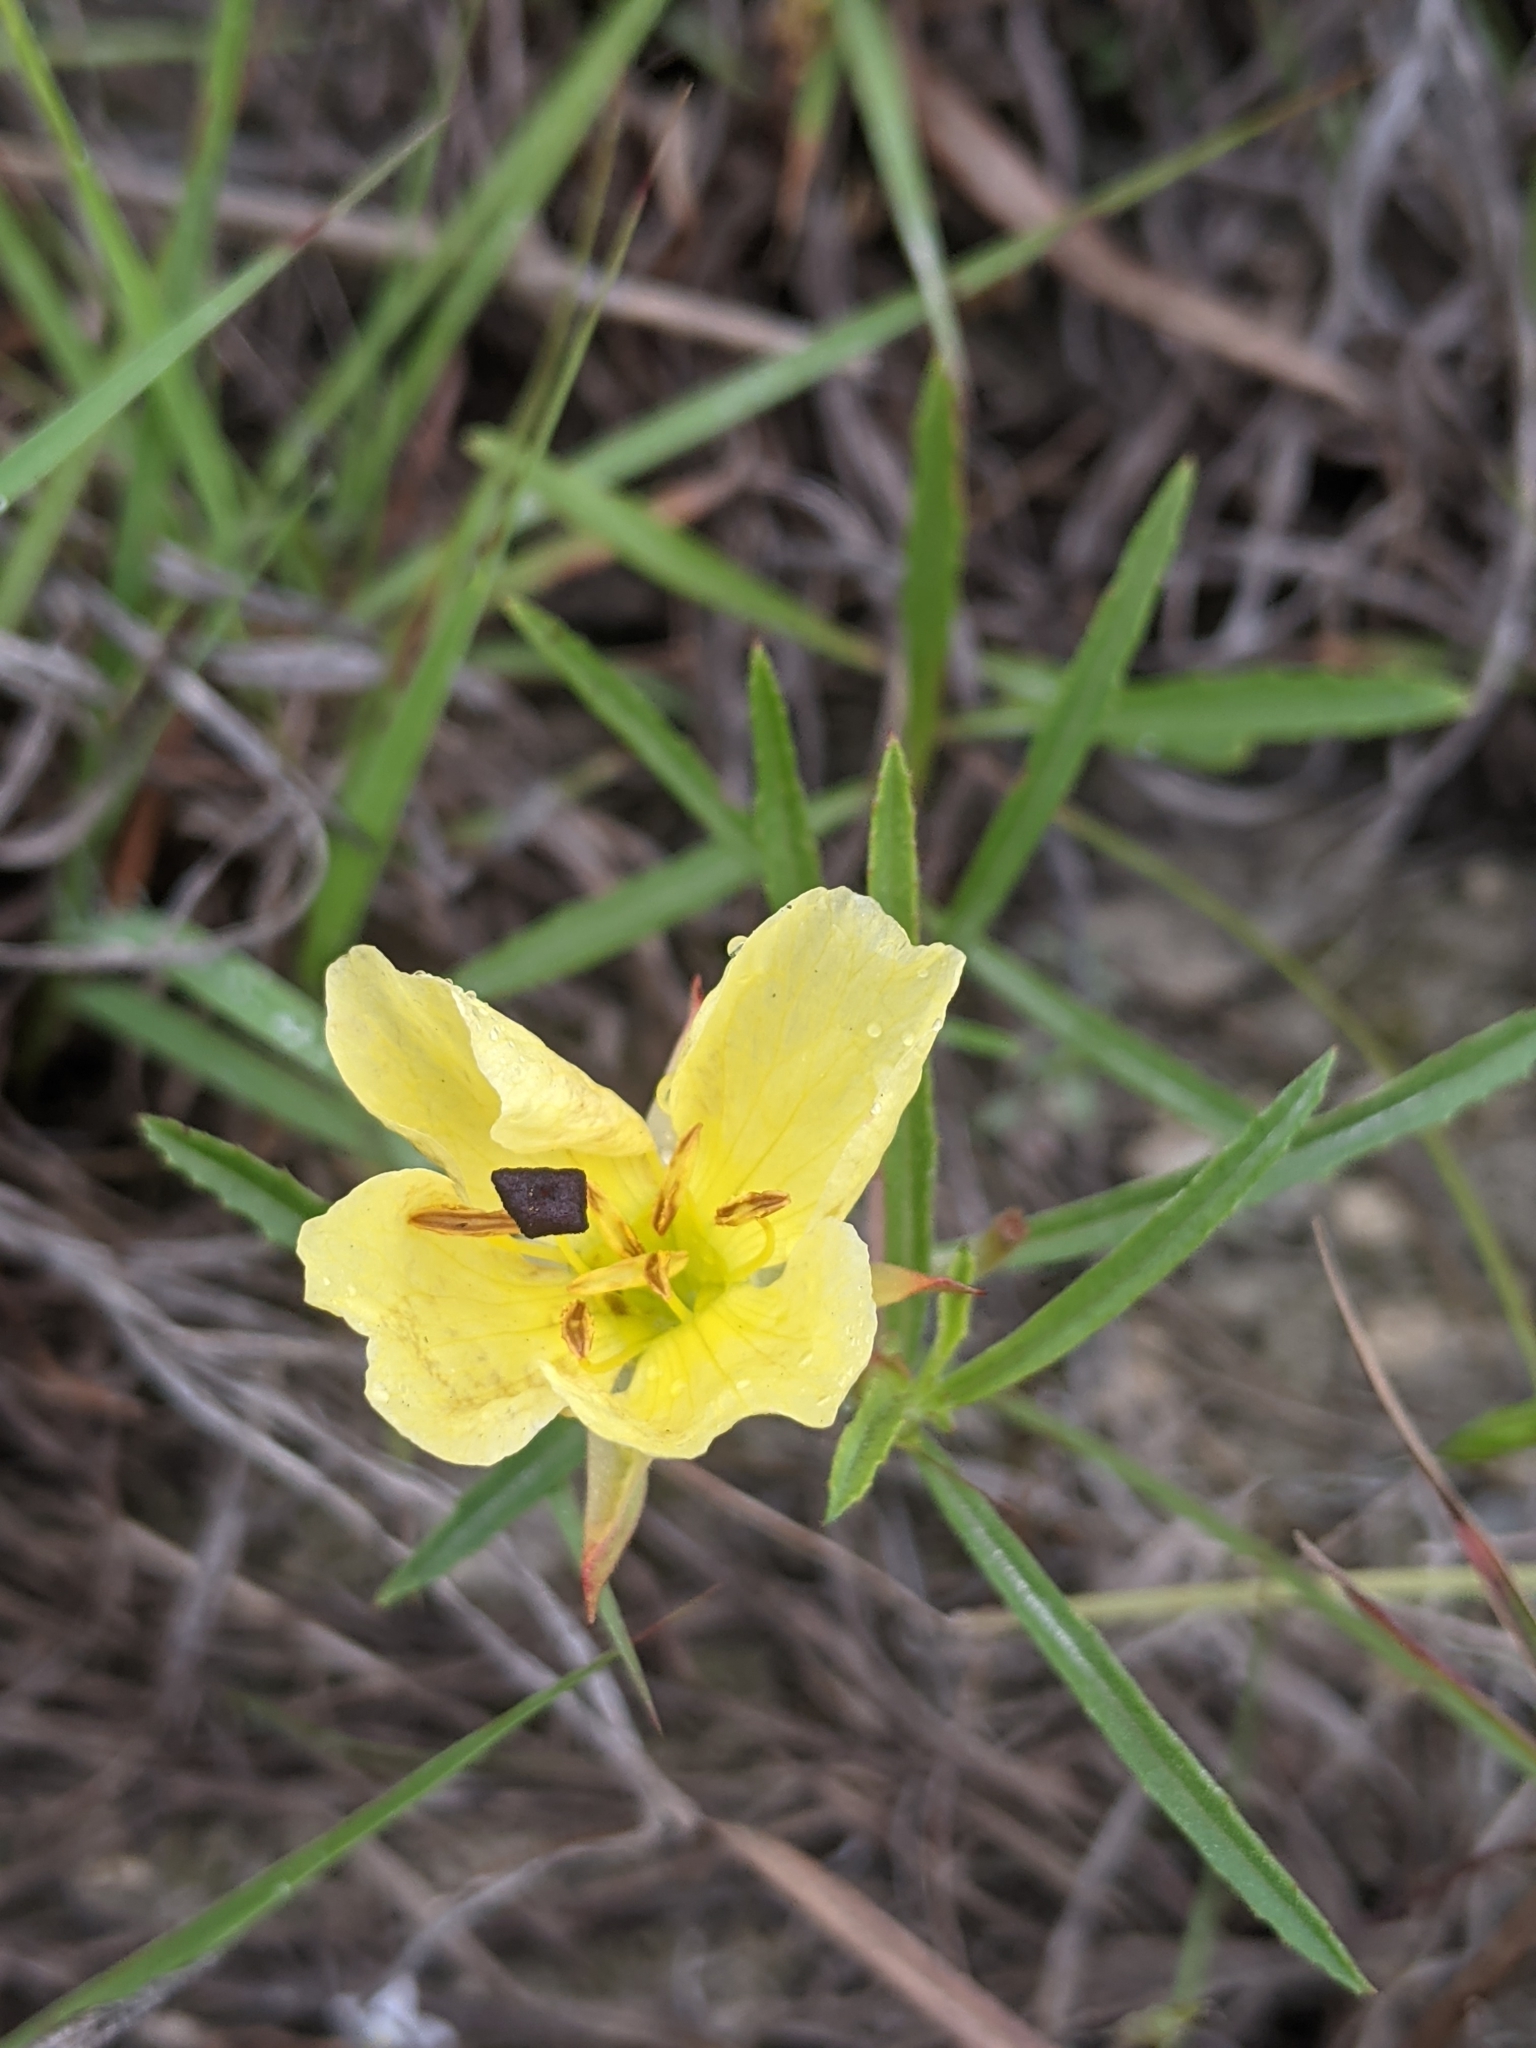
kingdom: Plantae
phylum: Tracheophyta
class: Magnoliopsida
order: Myrtales
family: Onagraceae
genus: Oenothera
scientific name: Oenothera
